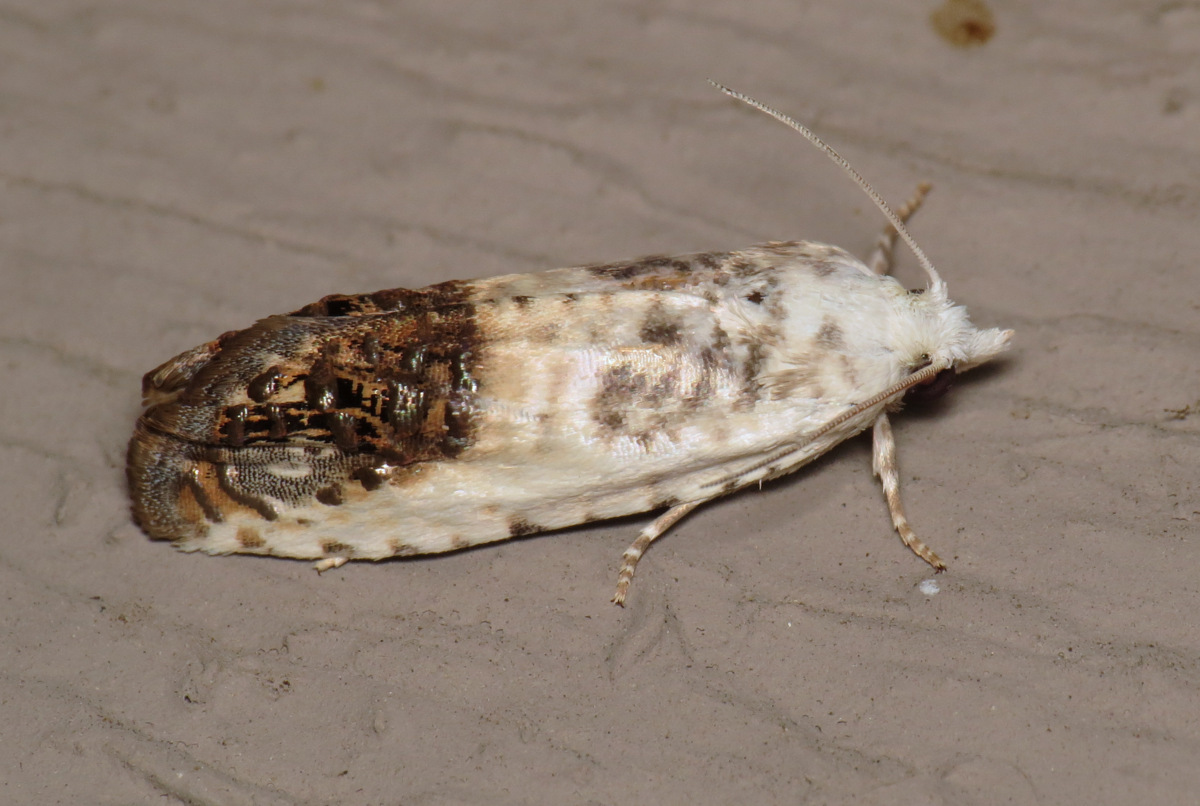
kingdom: Animalia
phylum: Arthropoda
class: Insecta
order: Lepidoptera
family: Tortricidae
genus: Eucosma
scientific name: Eucosma giganteana
